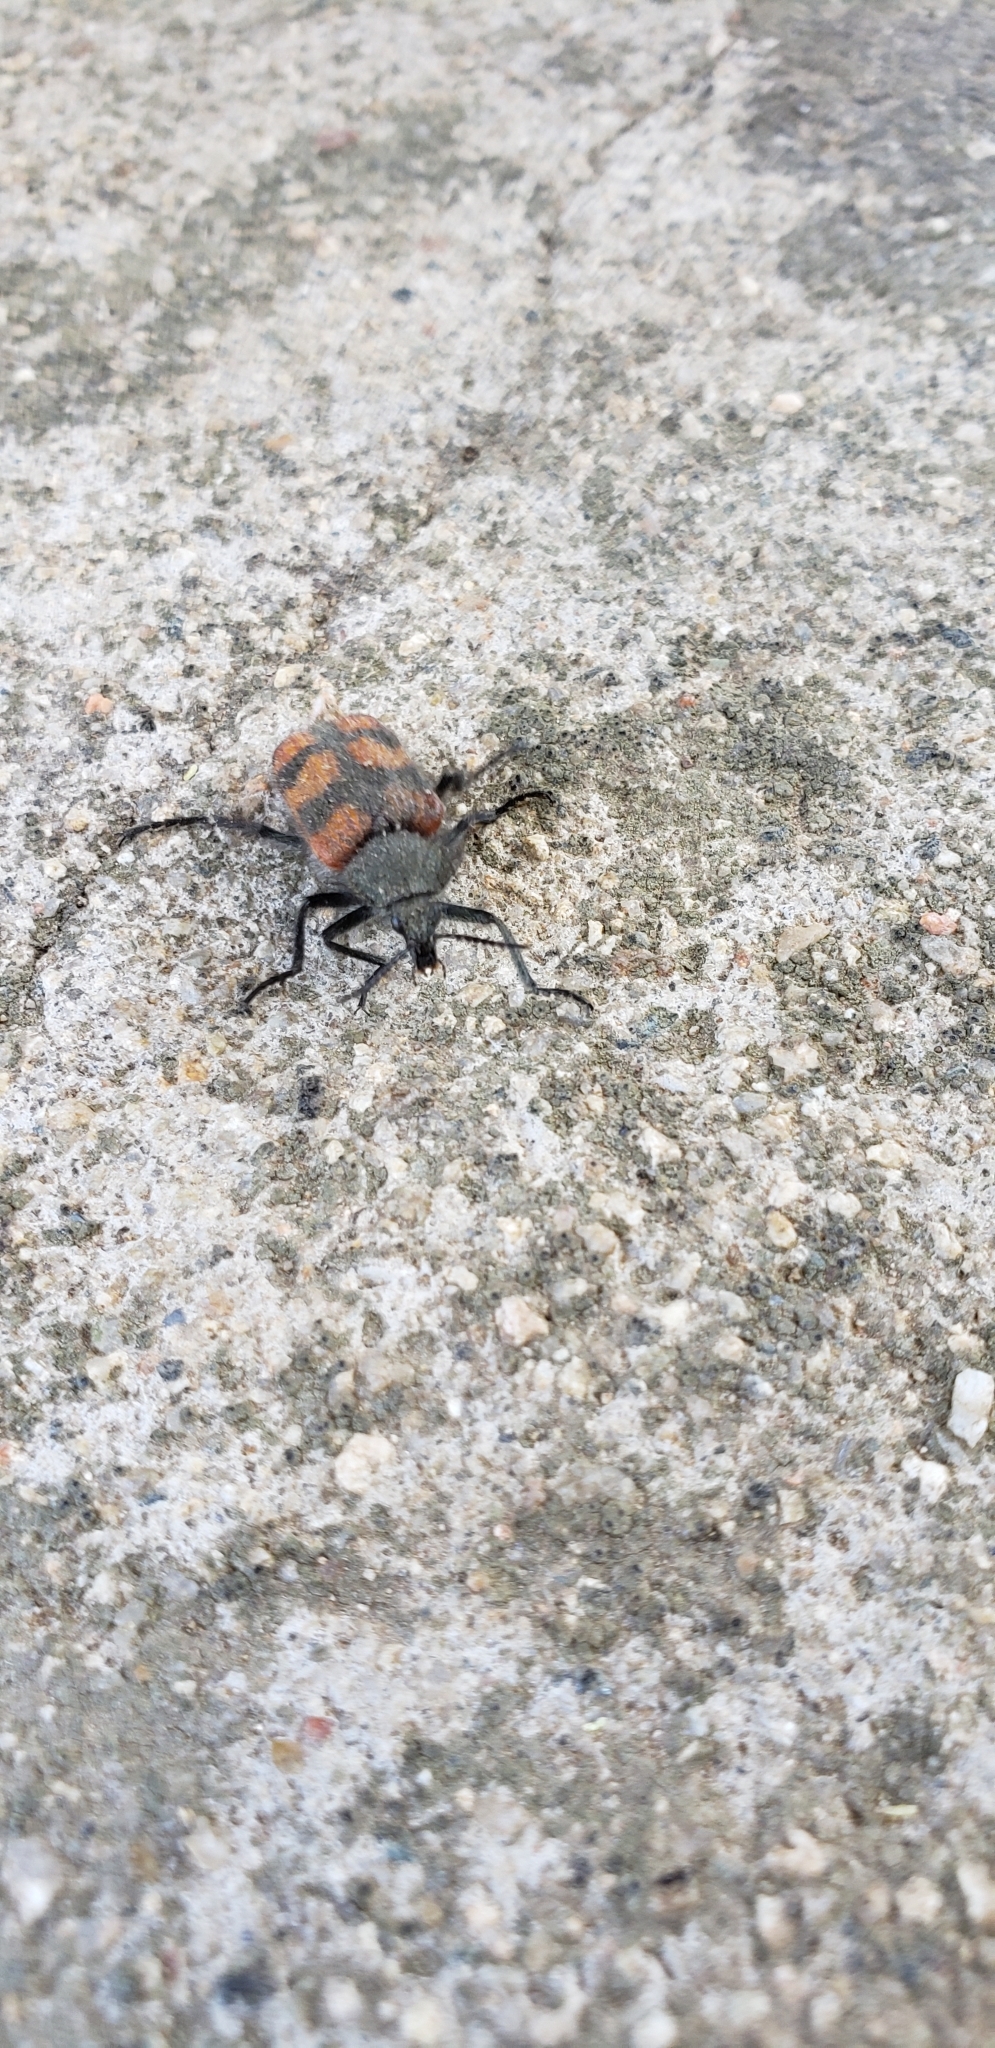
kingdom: Animalia
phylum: Arthropoda
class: Insecta
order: Coleoptera
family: Melyridae
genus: Astylus
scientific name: Astylus
